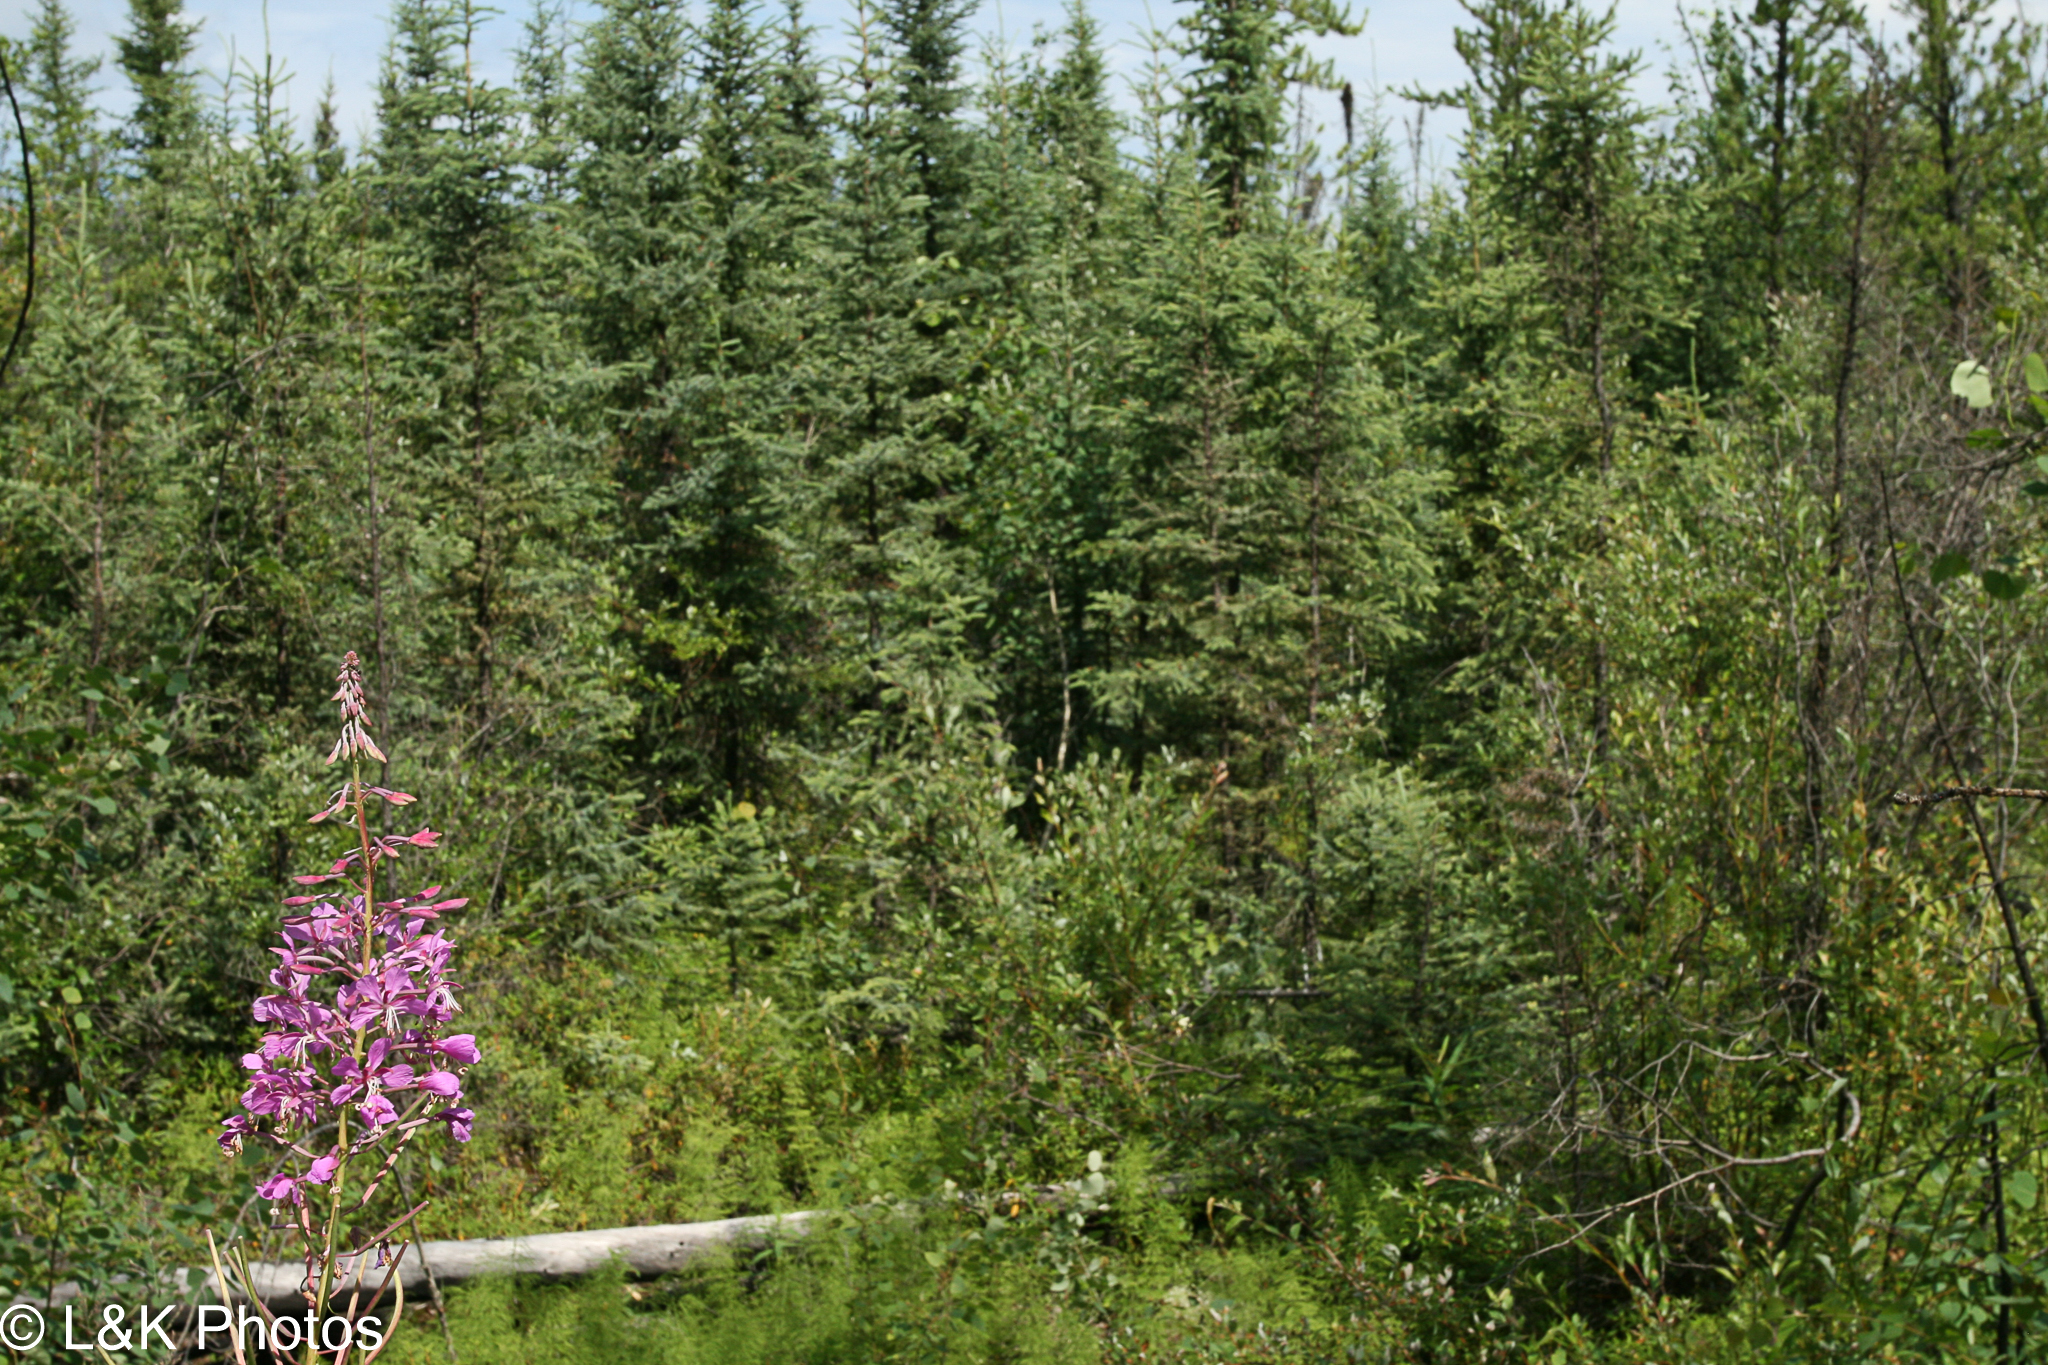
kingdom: Plantae
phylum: Tracheophyta
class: Magnoliopsida
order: Myrtales
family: Onagraceae
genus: Chamaenerion
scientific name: Chamaenerion angustifolium
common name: Fireweed
